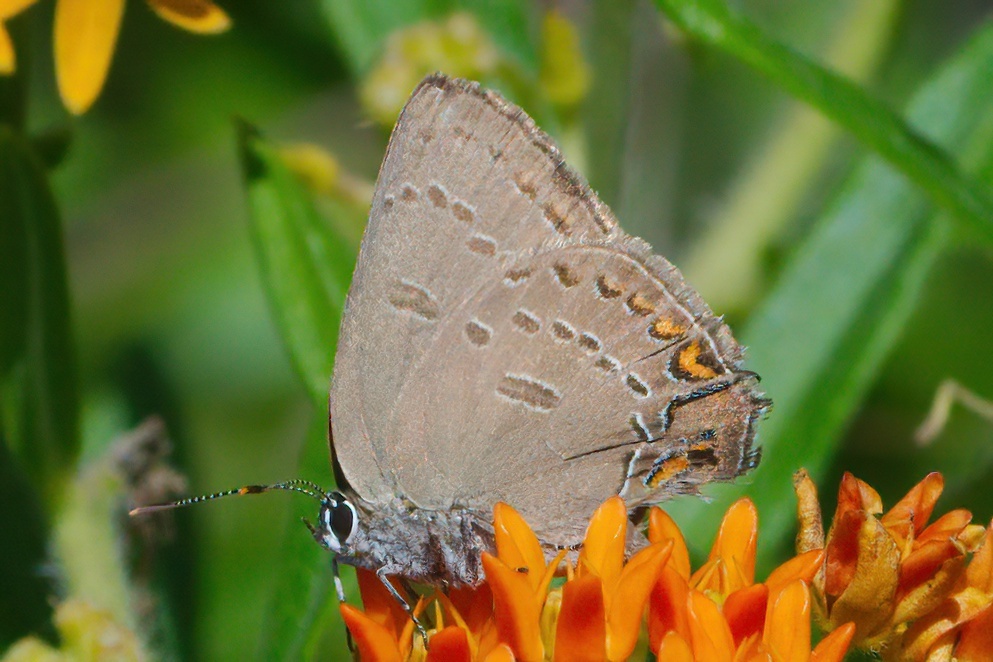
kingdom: Animalia
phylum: Arthropoda
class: Insecta
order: Lepidoptera
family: Lycaenidae
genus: Satyrium
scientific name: Satyrium edwardsii
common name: Edwards' hairstreak
